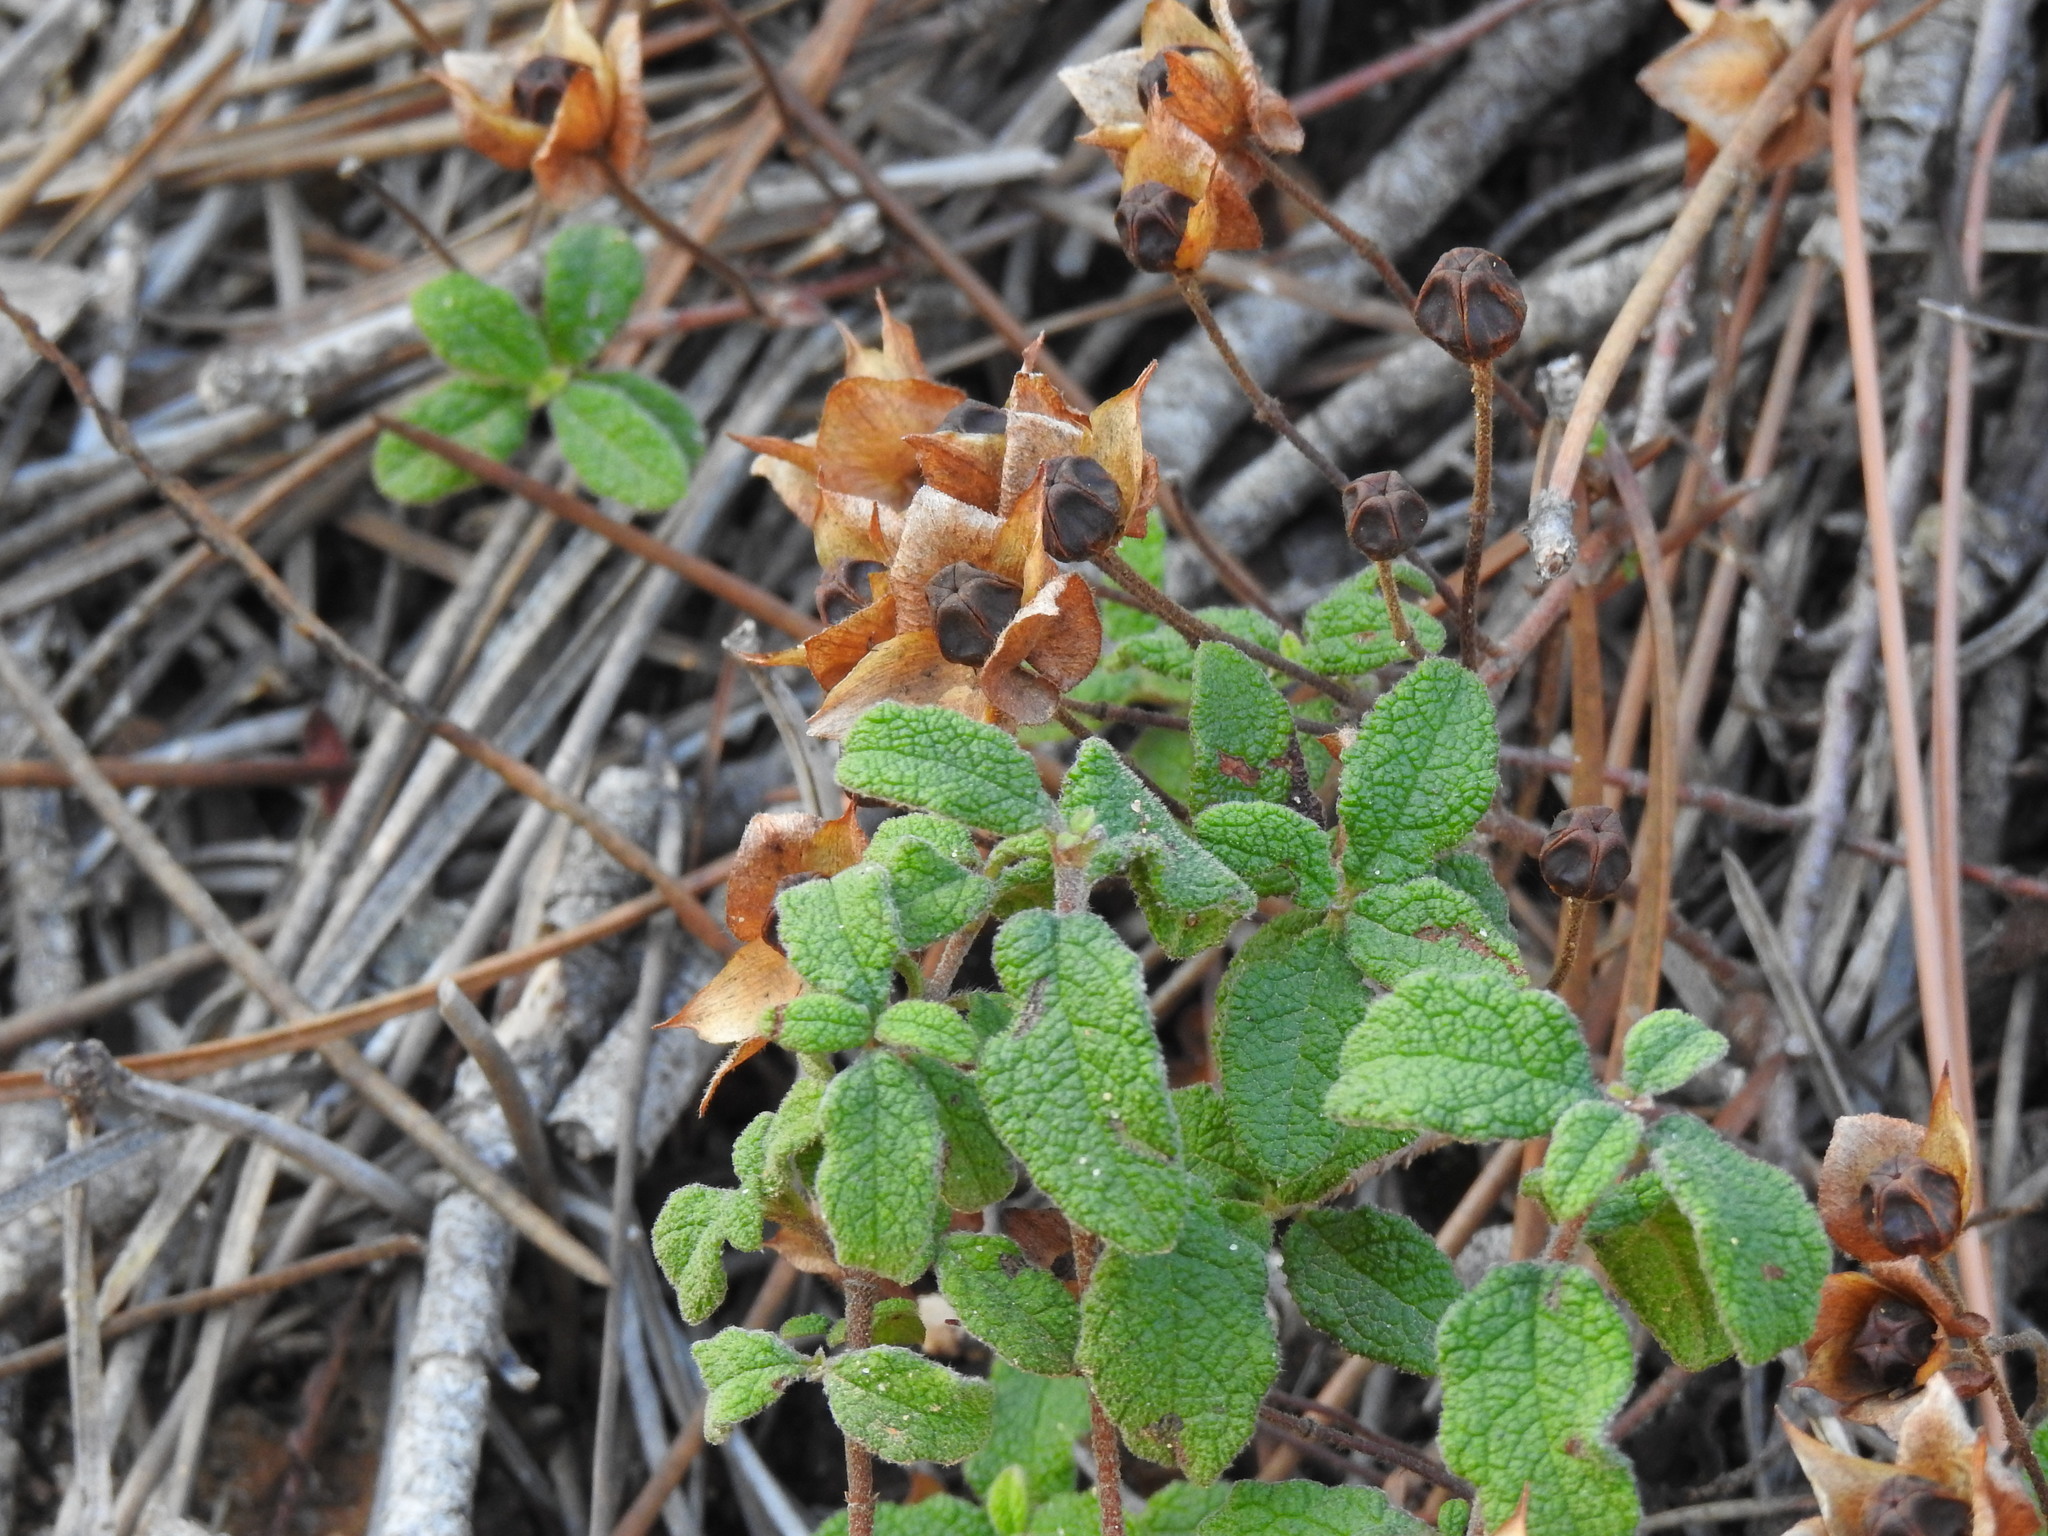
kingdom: Plantae
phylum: Tracheophyta
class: Magnoliopsida
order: Malvales
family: Cistaceae
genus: Cistus
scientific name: Cistus salviifolius
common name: Salvia cistus
